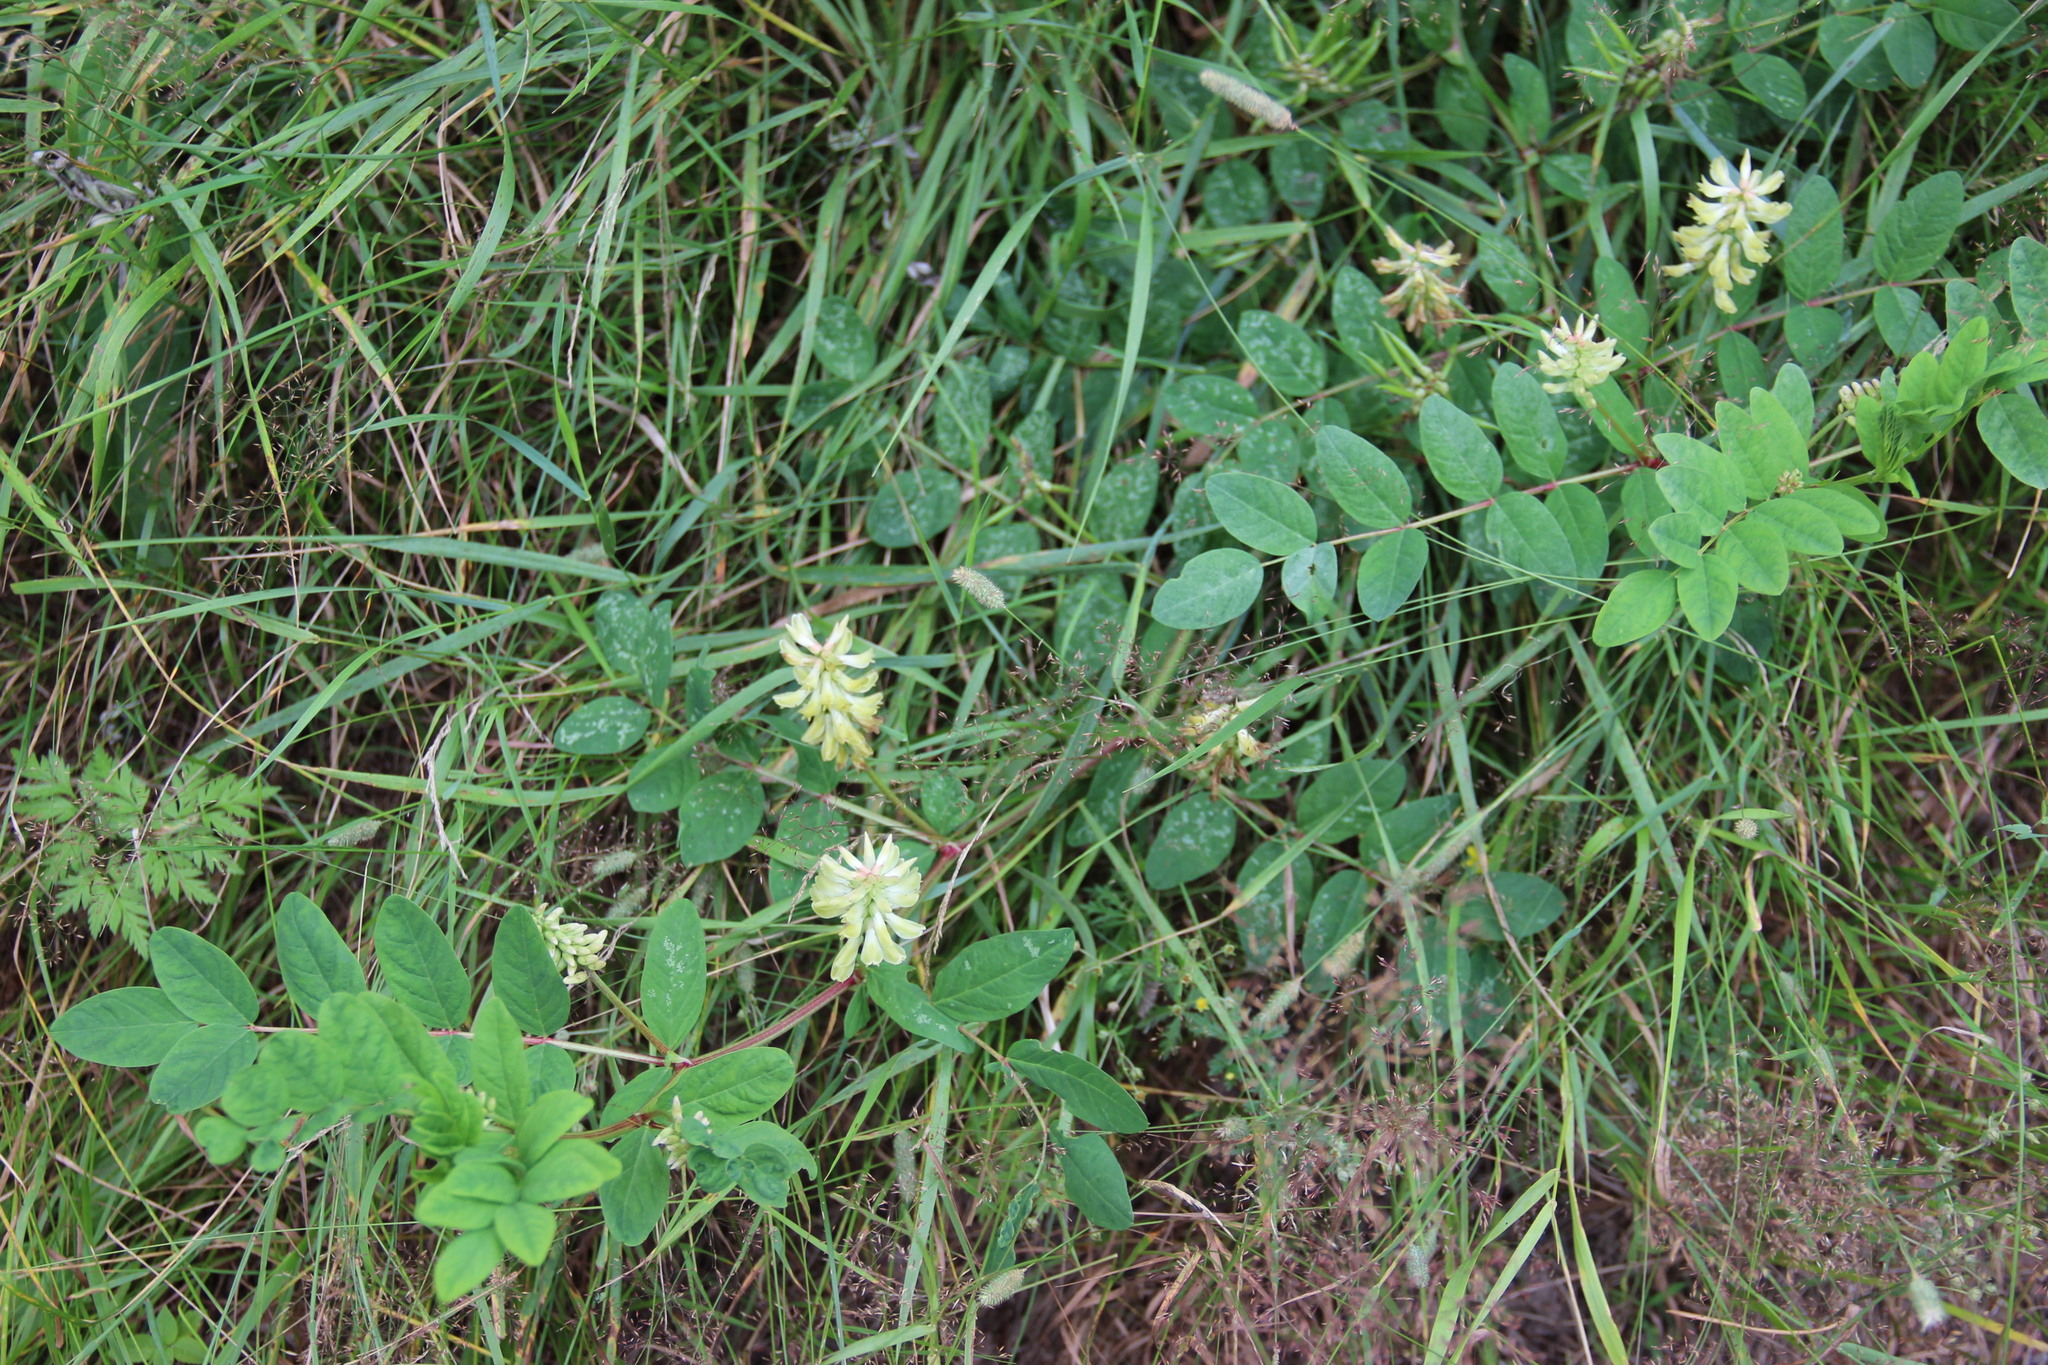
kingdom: Plantae
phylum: Tracheophyta
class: Magnoliopsida
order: Fabales
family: Fabaceae
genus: Astragalus
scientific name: Astragalus glycyphyllos
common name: Wild liquorice
